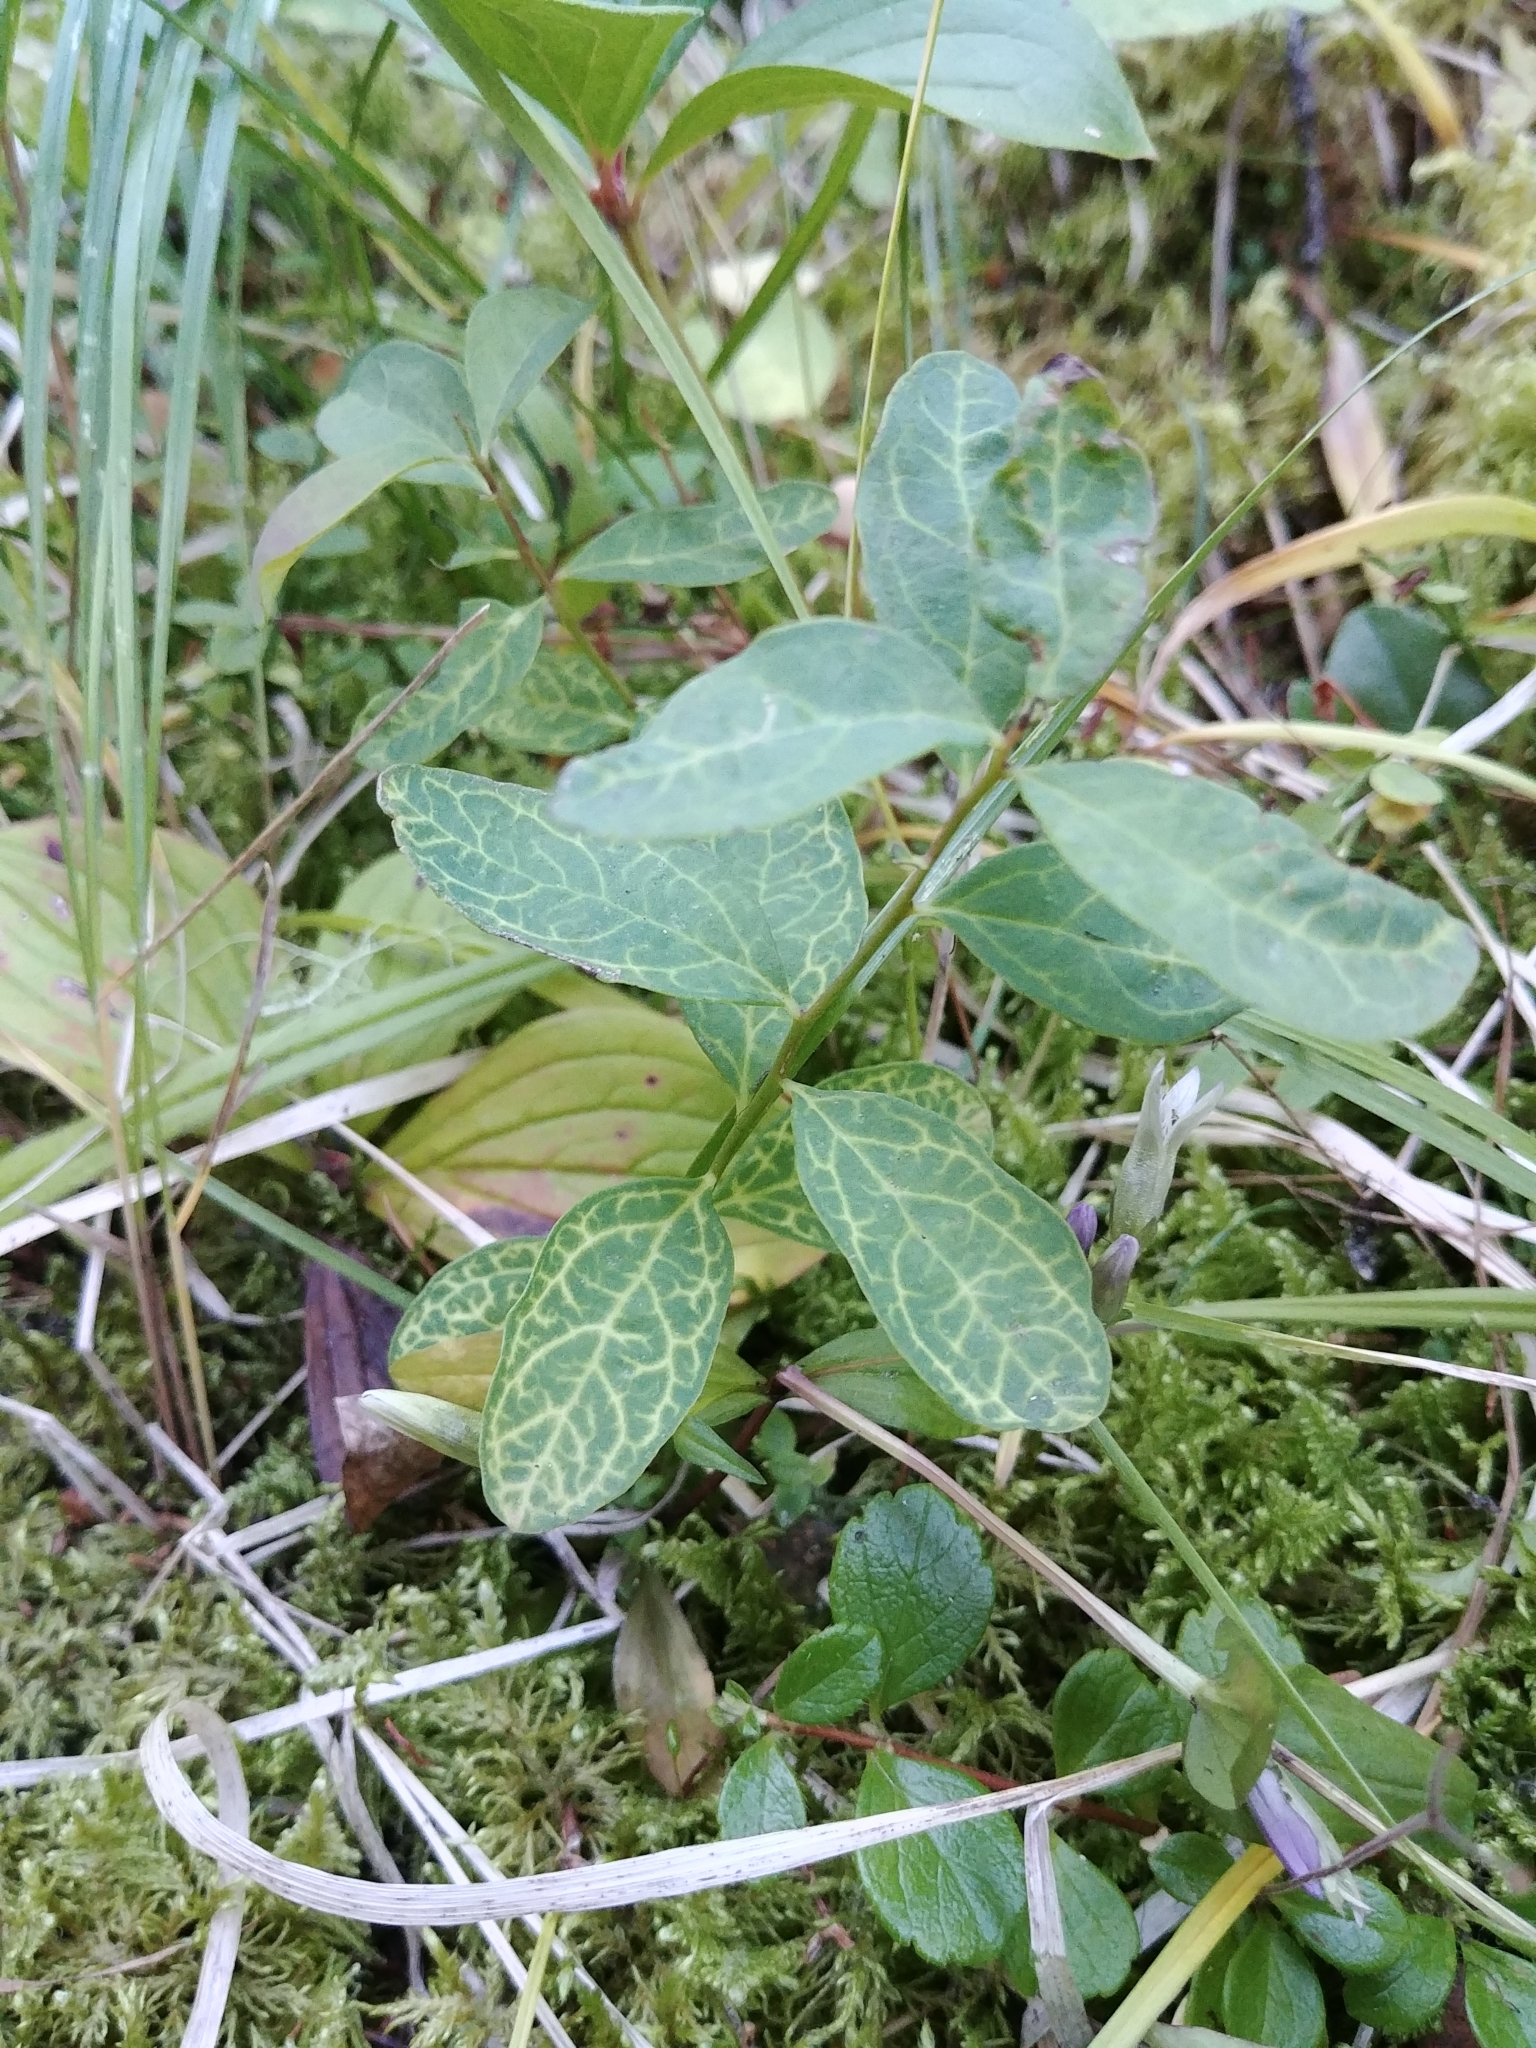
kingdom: Plantae
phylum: Tracheophyta
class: Magnoliopsida
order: Santalales
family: Comandraceae
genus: Geocaulon
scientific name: Geocaulon lividum
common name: Earthberry
